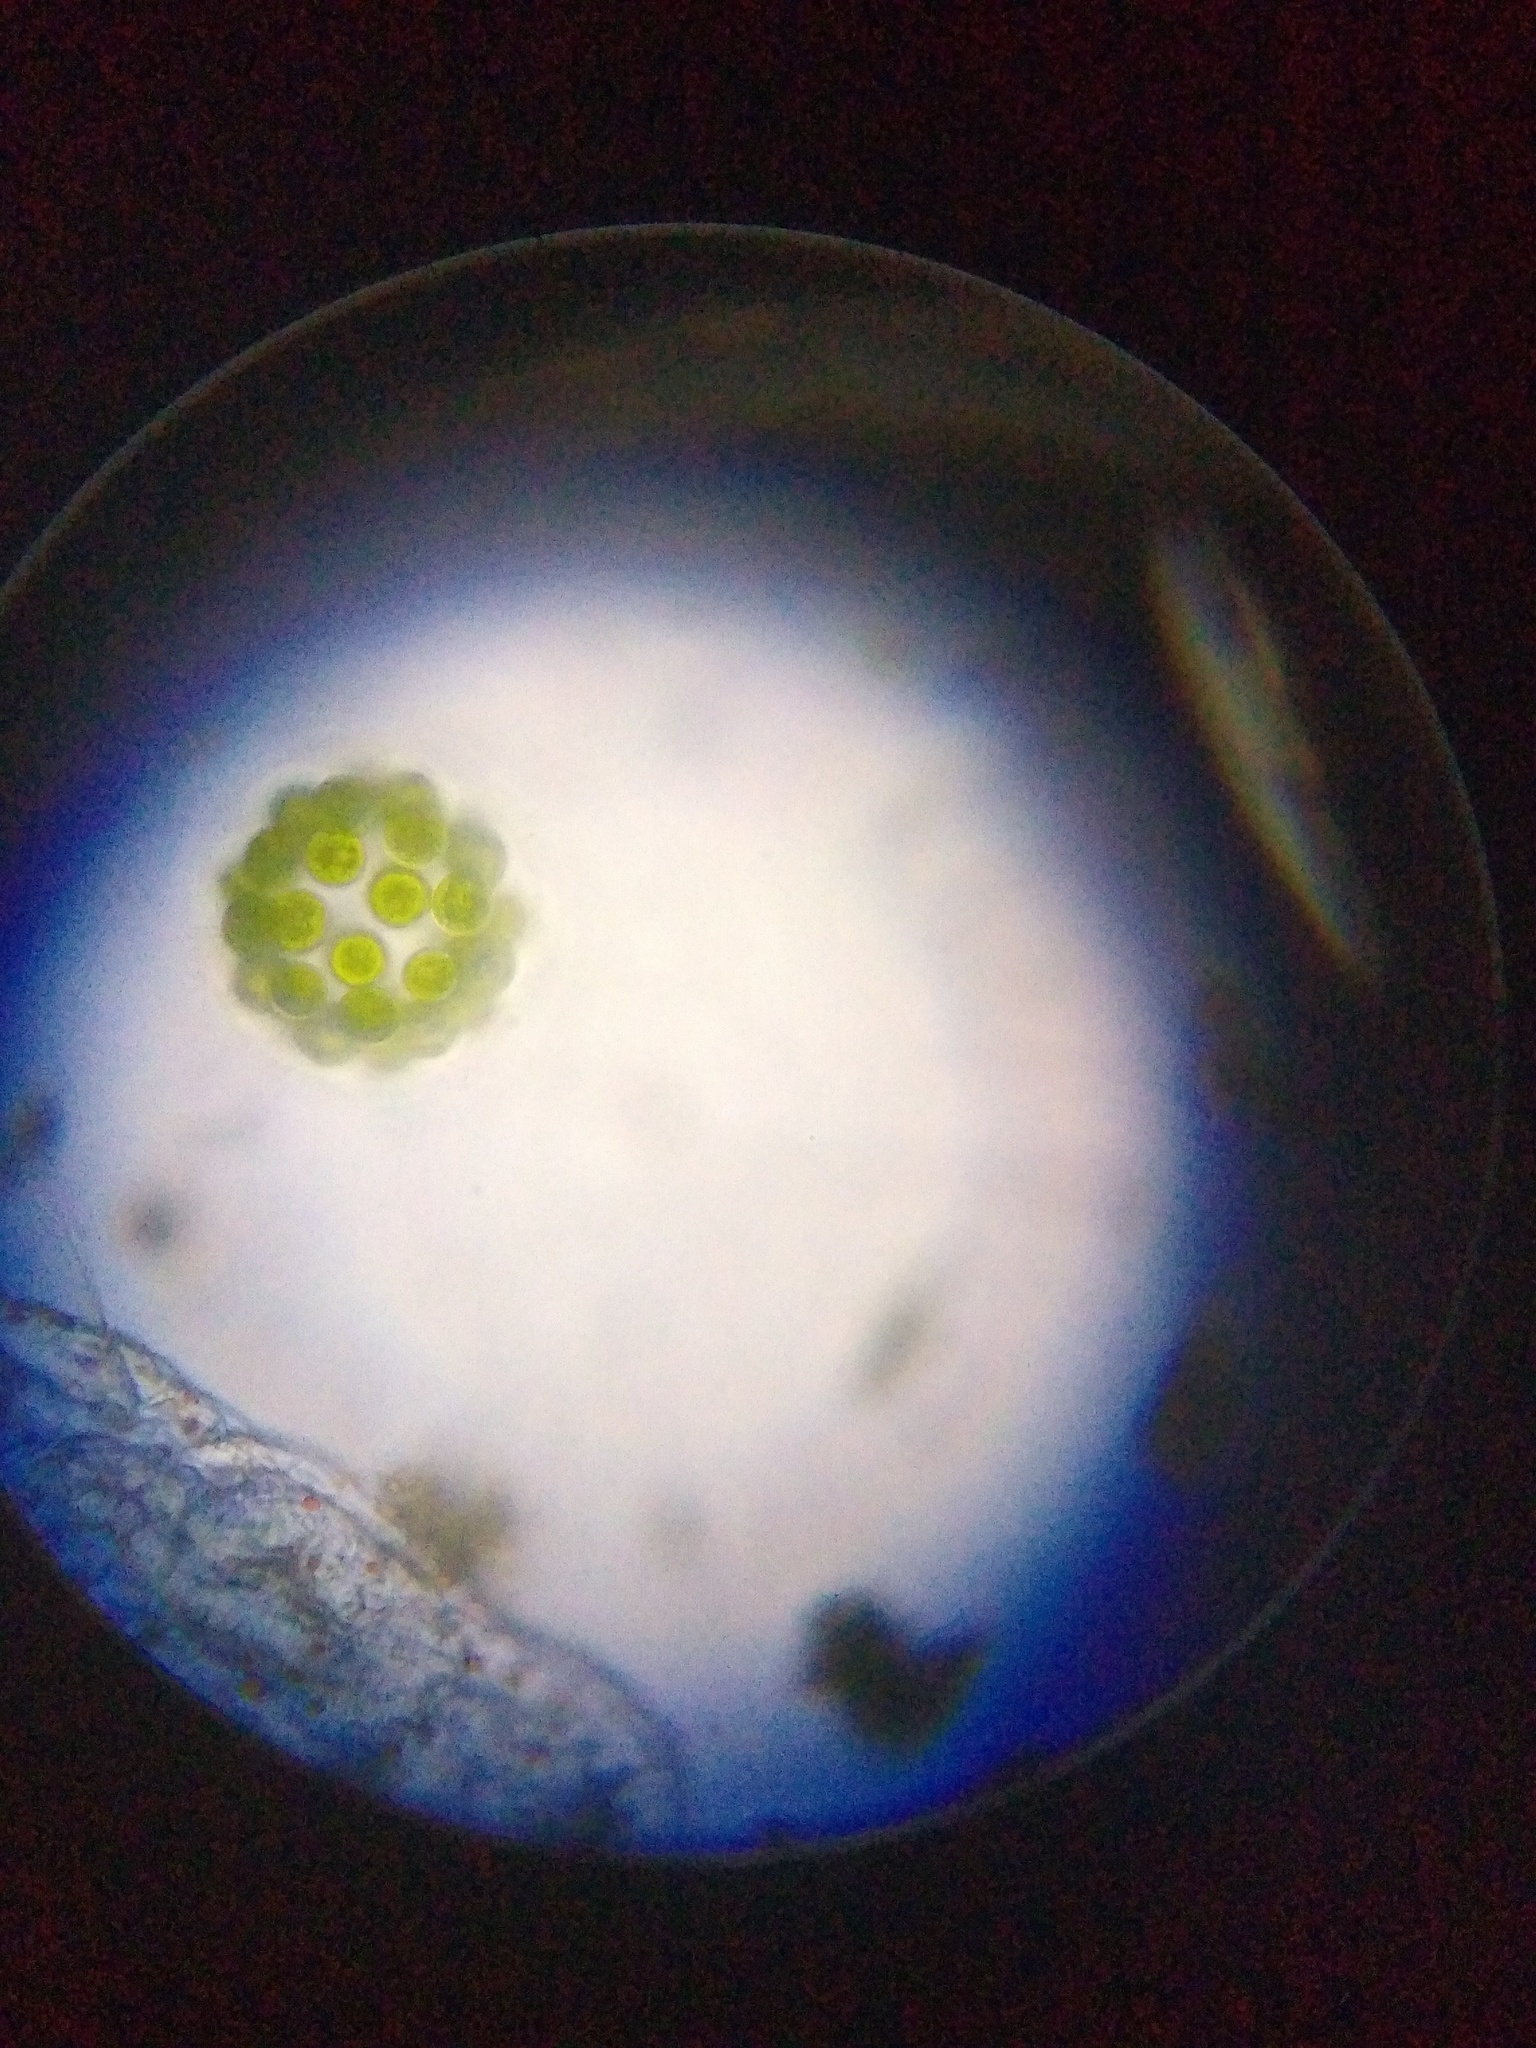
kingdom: Plantae
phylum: Chlorophyta
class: Chlorophyceae
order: Volvocales
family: Volvocaceae
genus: Eudorina
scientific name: Eudorina elegans
